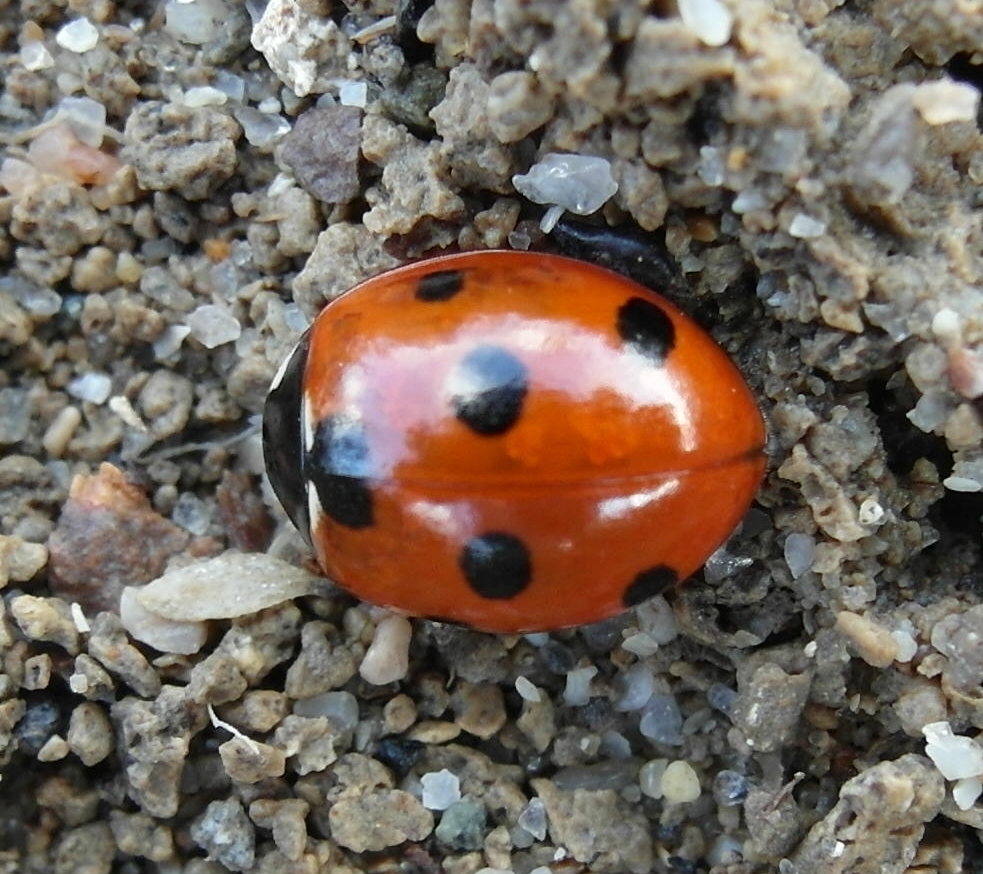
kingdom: Animalia
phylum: Arthropoda
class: Insecta
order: Coleoptera
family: Coccinellidae
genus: Coccinella
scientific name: Coccinella septempunctata
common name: Sevenspotted lady beetle
